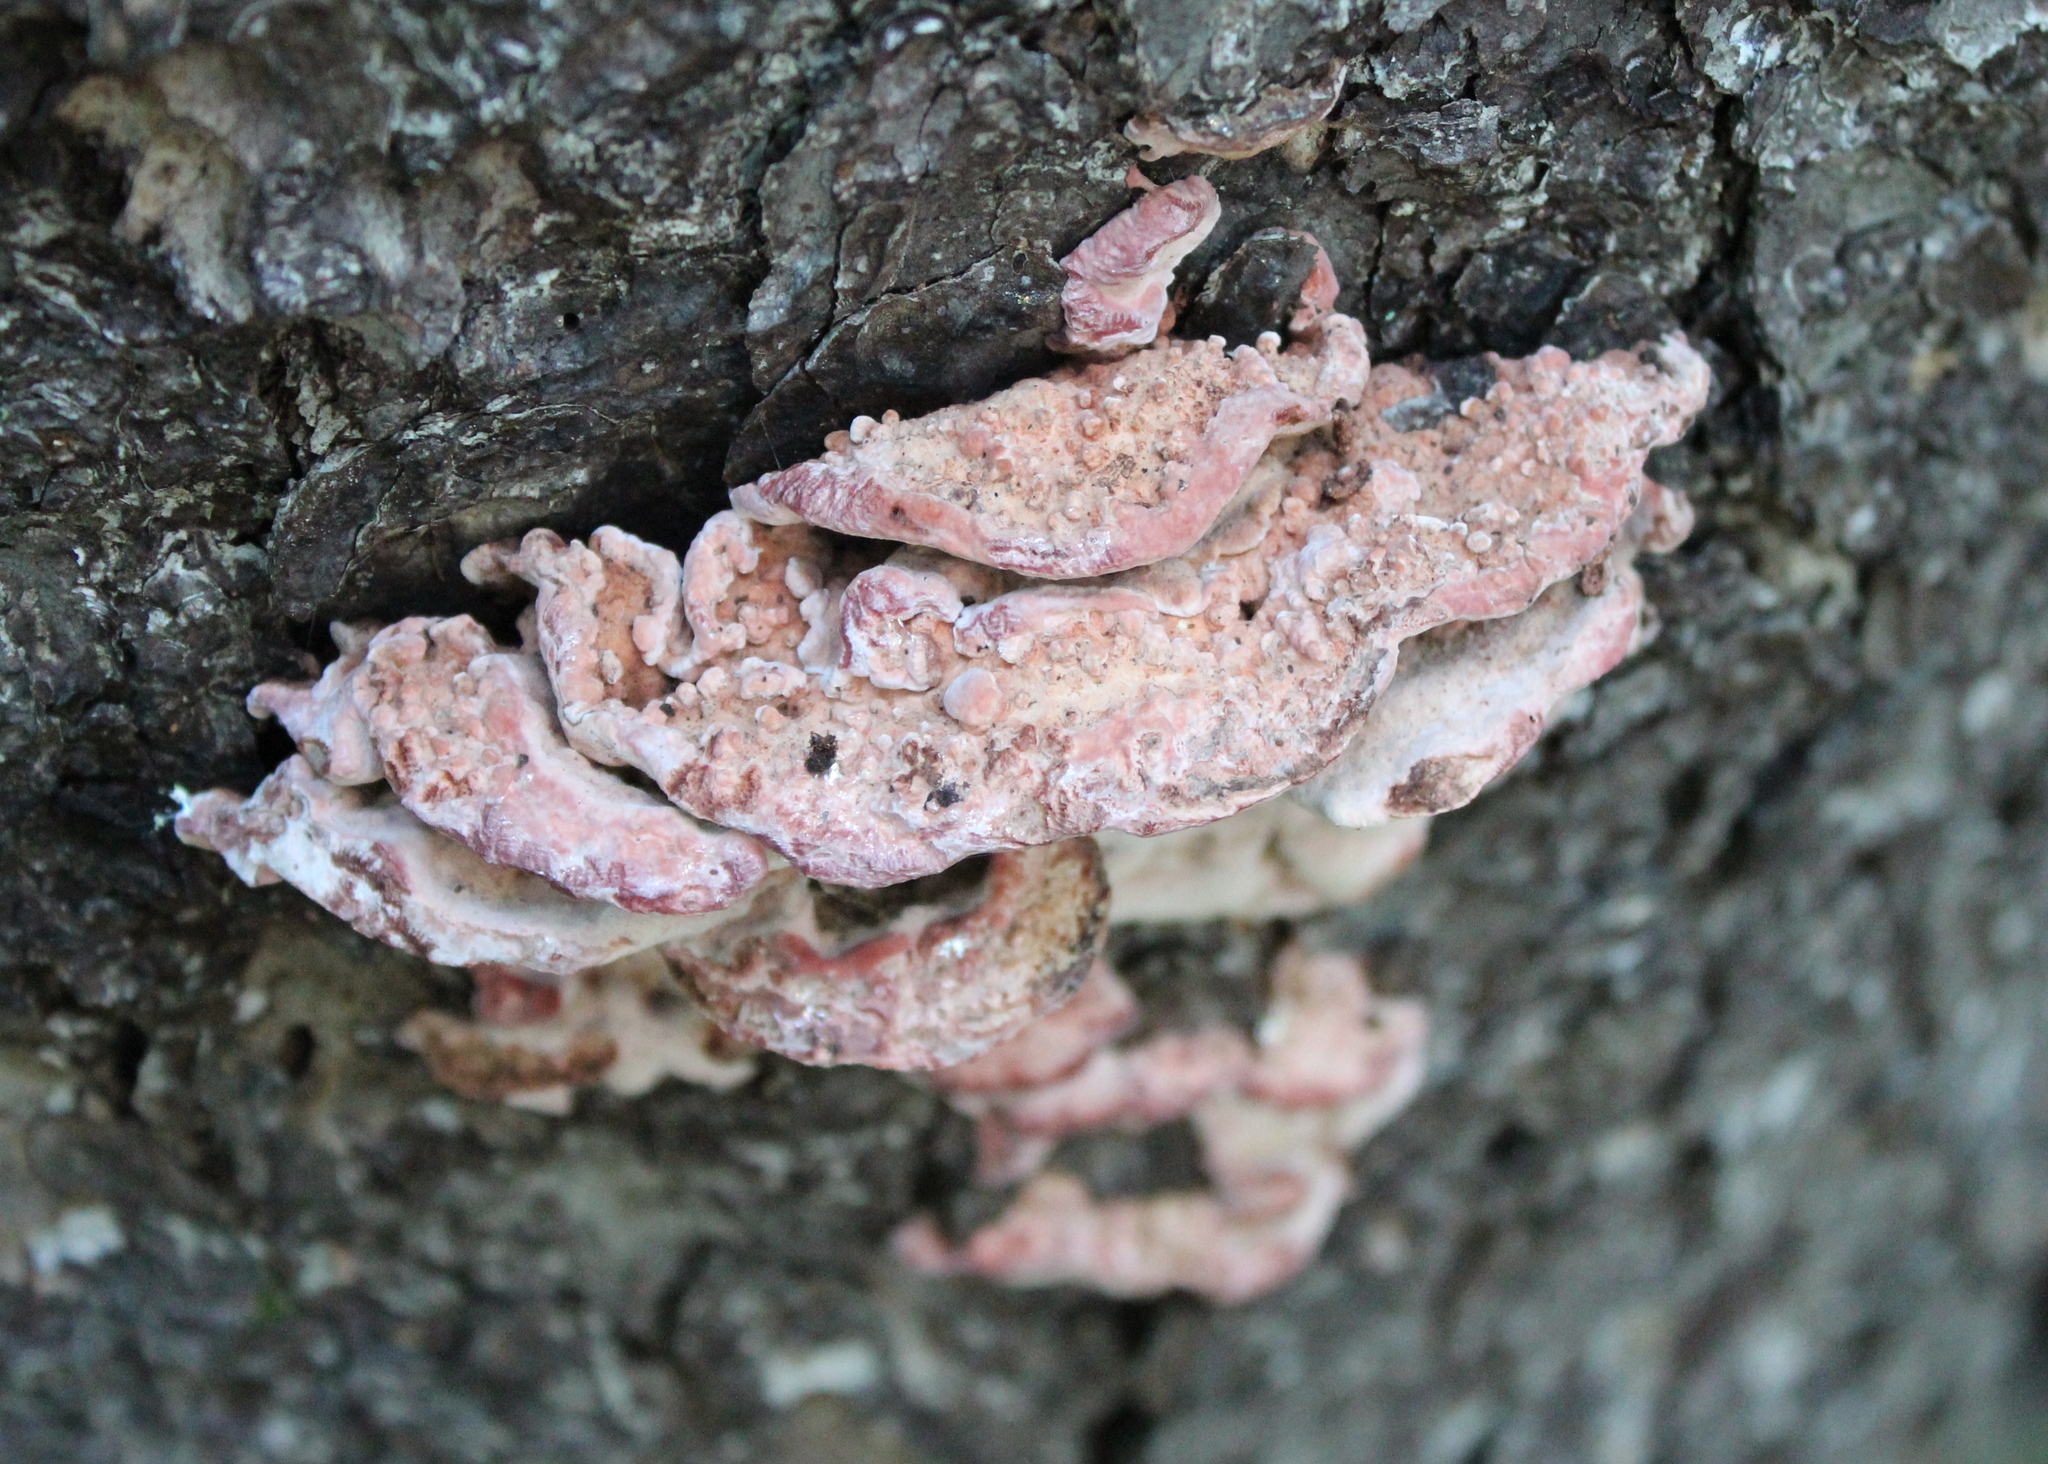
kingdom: Fungi
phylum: Basidiomycota
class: Agaricomycetes
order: Polyporales
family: Fomitopsidaceae
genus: Rhodofomes
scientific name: Rhodofomes cajanderi
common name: Rosy conk
